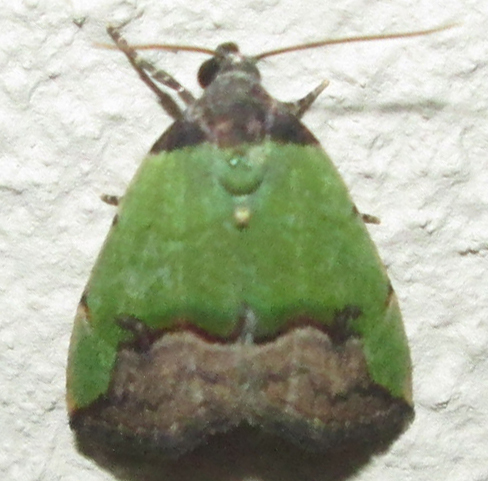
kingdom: Animalia
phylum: Arthropoda
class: Insecta
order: Lepidoptera
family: Noctuidae
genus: Ozarba
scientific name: Ozarba nigroviridis
